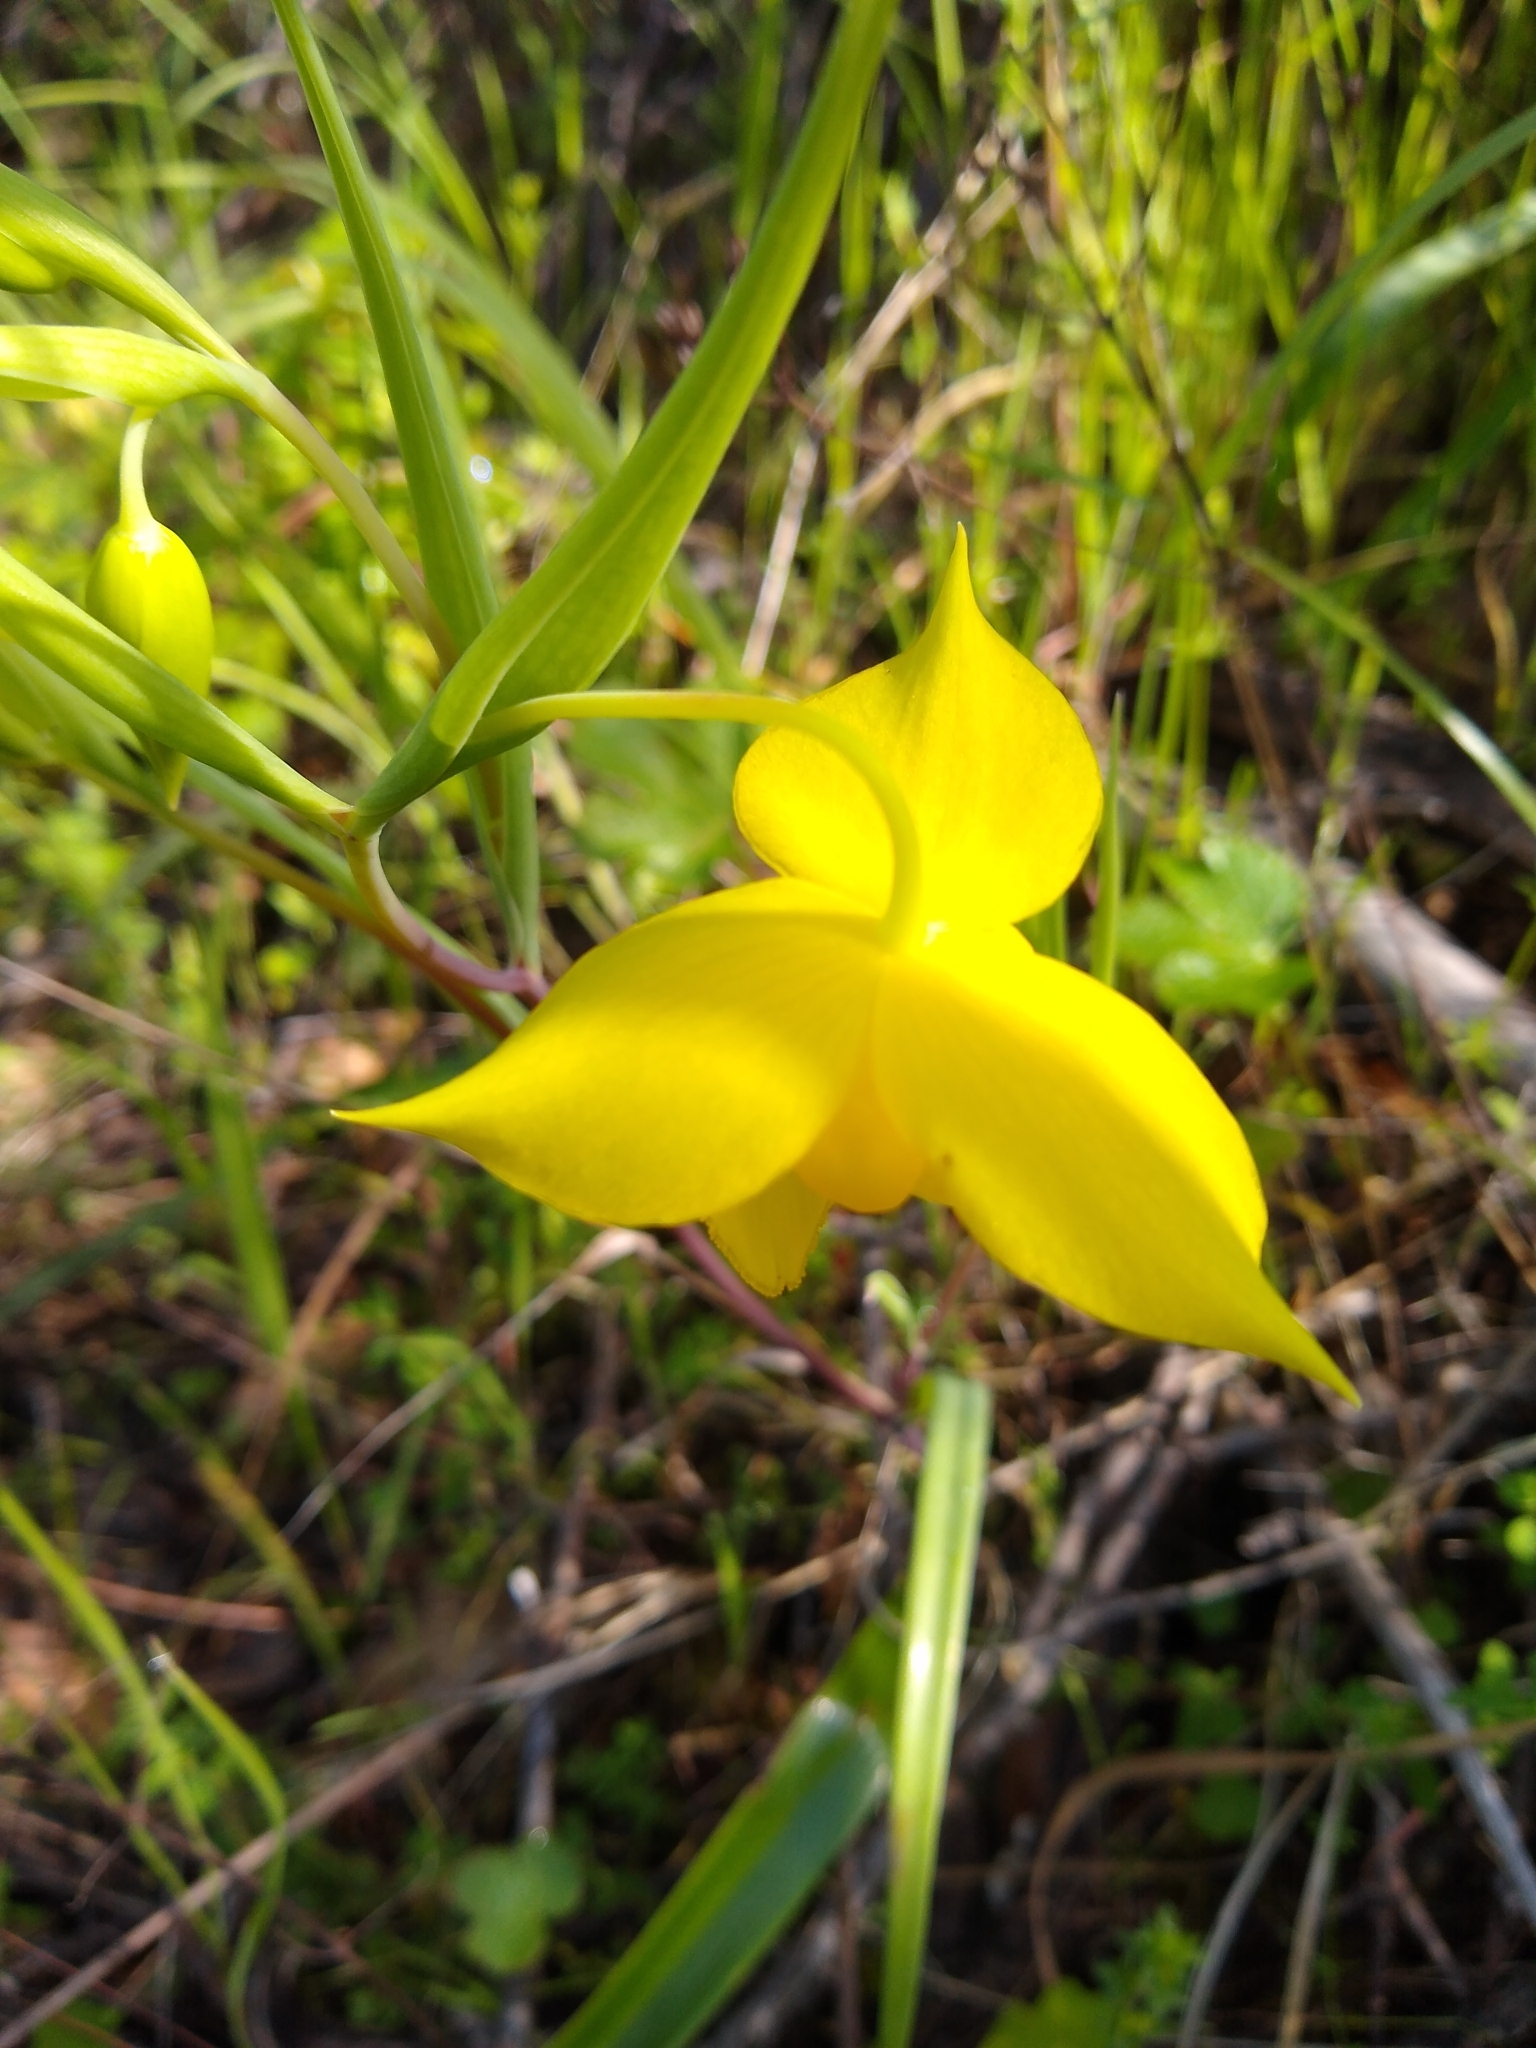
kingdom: Plantae
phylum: Tracheophyta
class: Liliopsida
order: Liliales
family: Liliaceae
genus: Calochortus
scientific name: Calochortus amabilis
